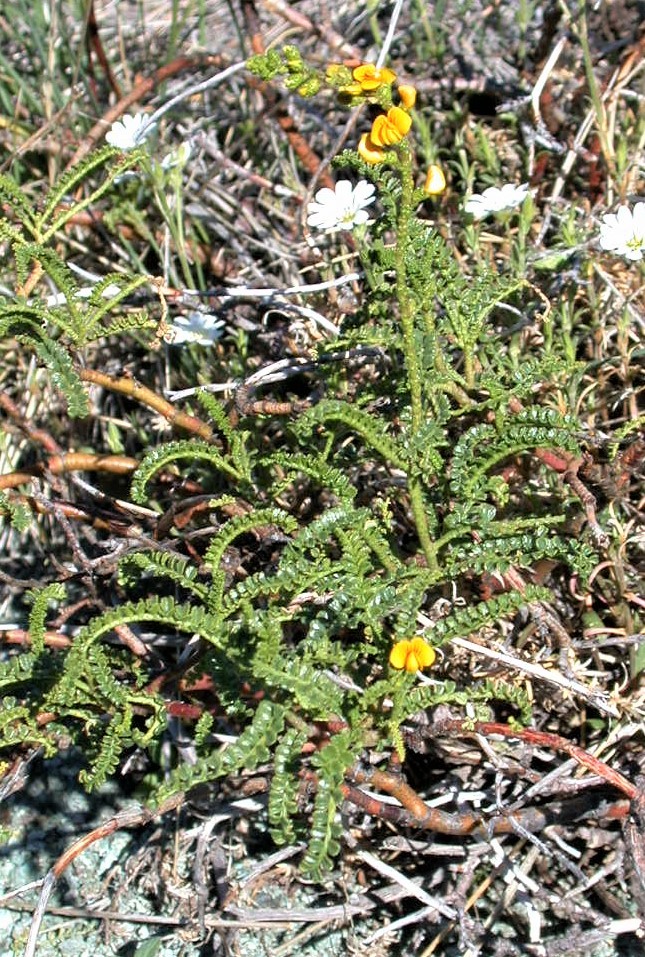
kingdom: Plantae
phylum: Tracheophyta
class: Magnoliopsida
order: Fabales
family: Fabaceae
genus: Adesmia
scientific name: Adesmia boronioides
